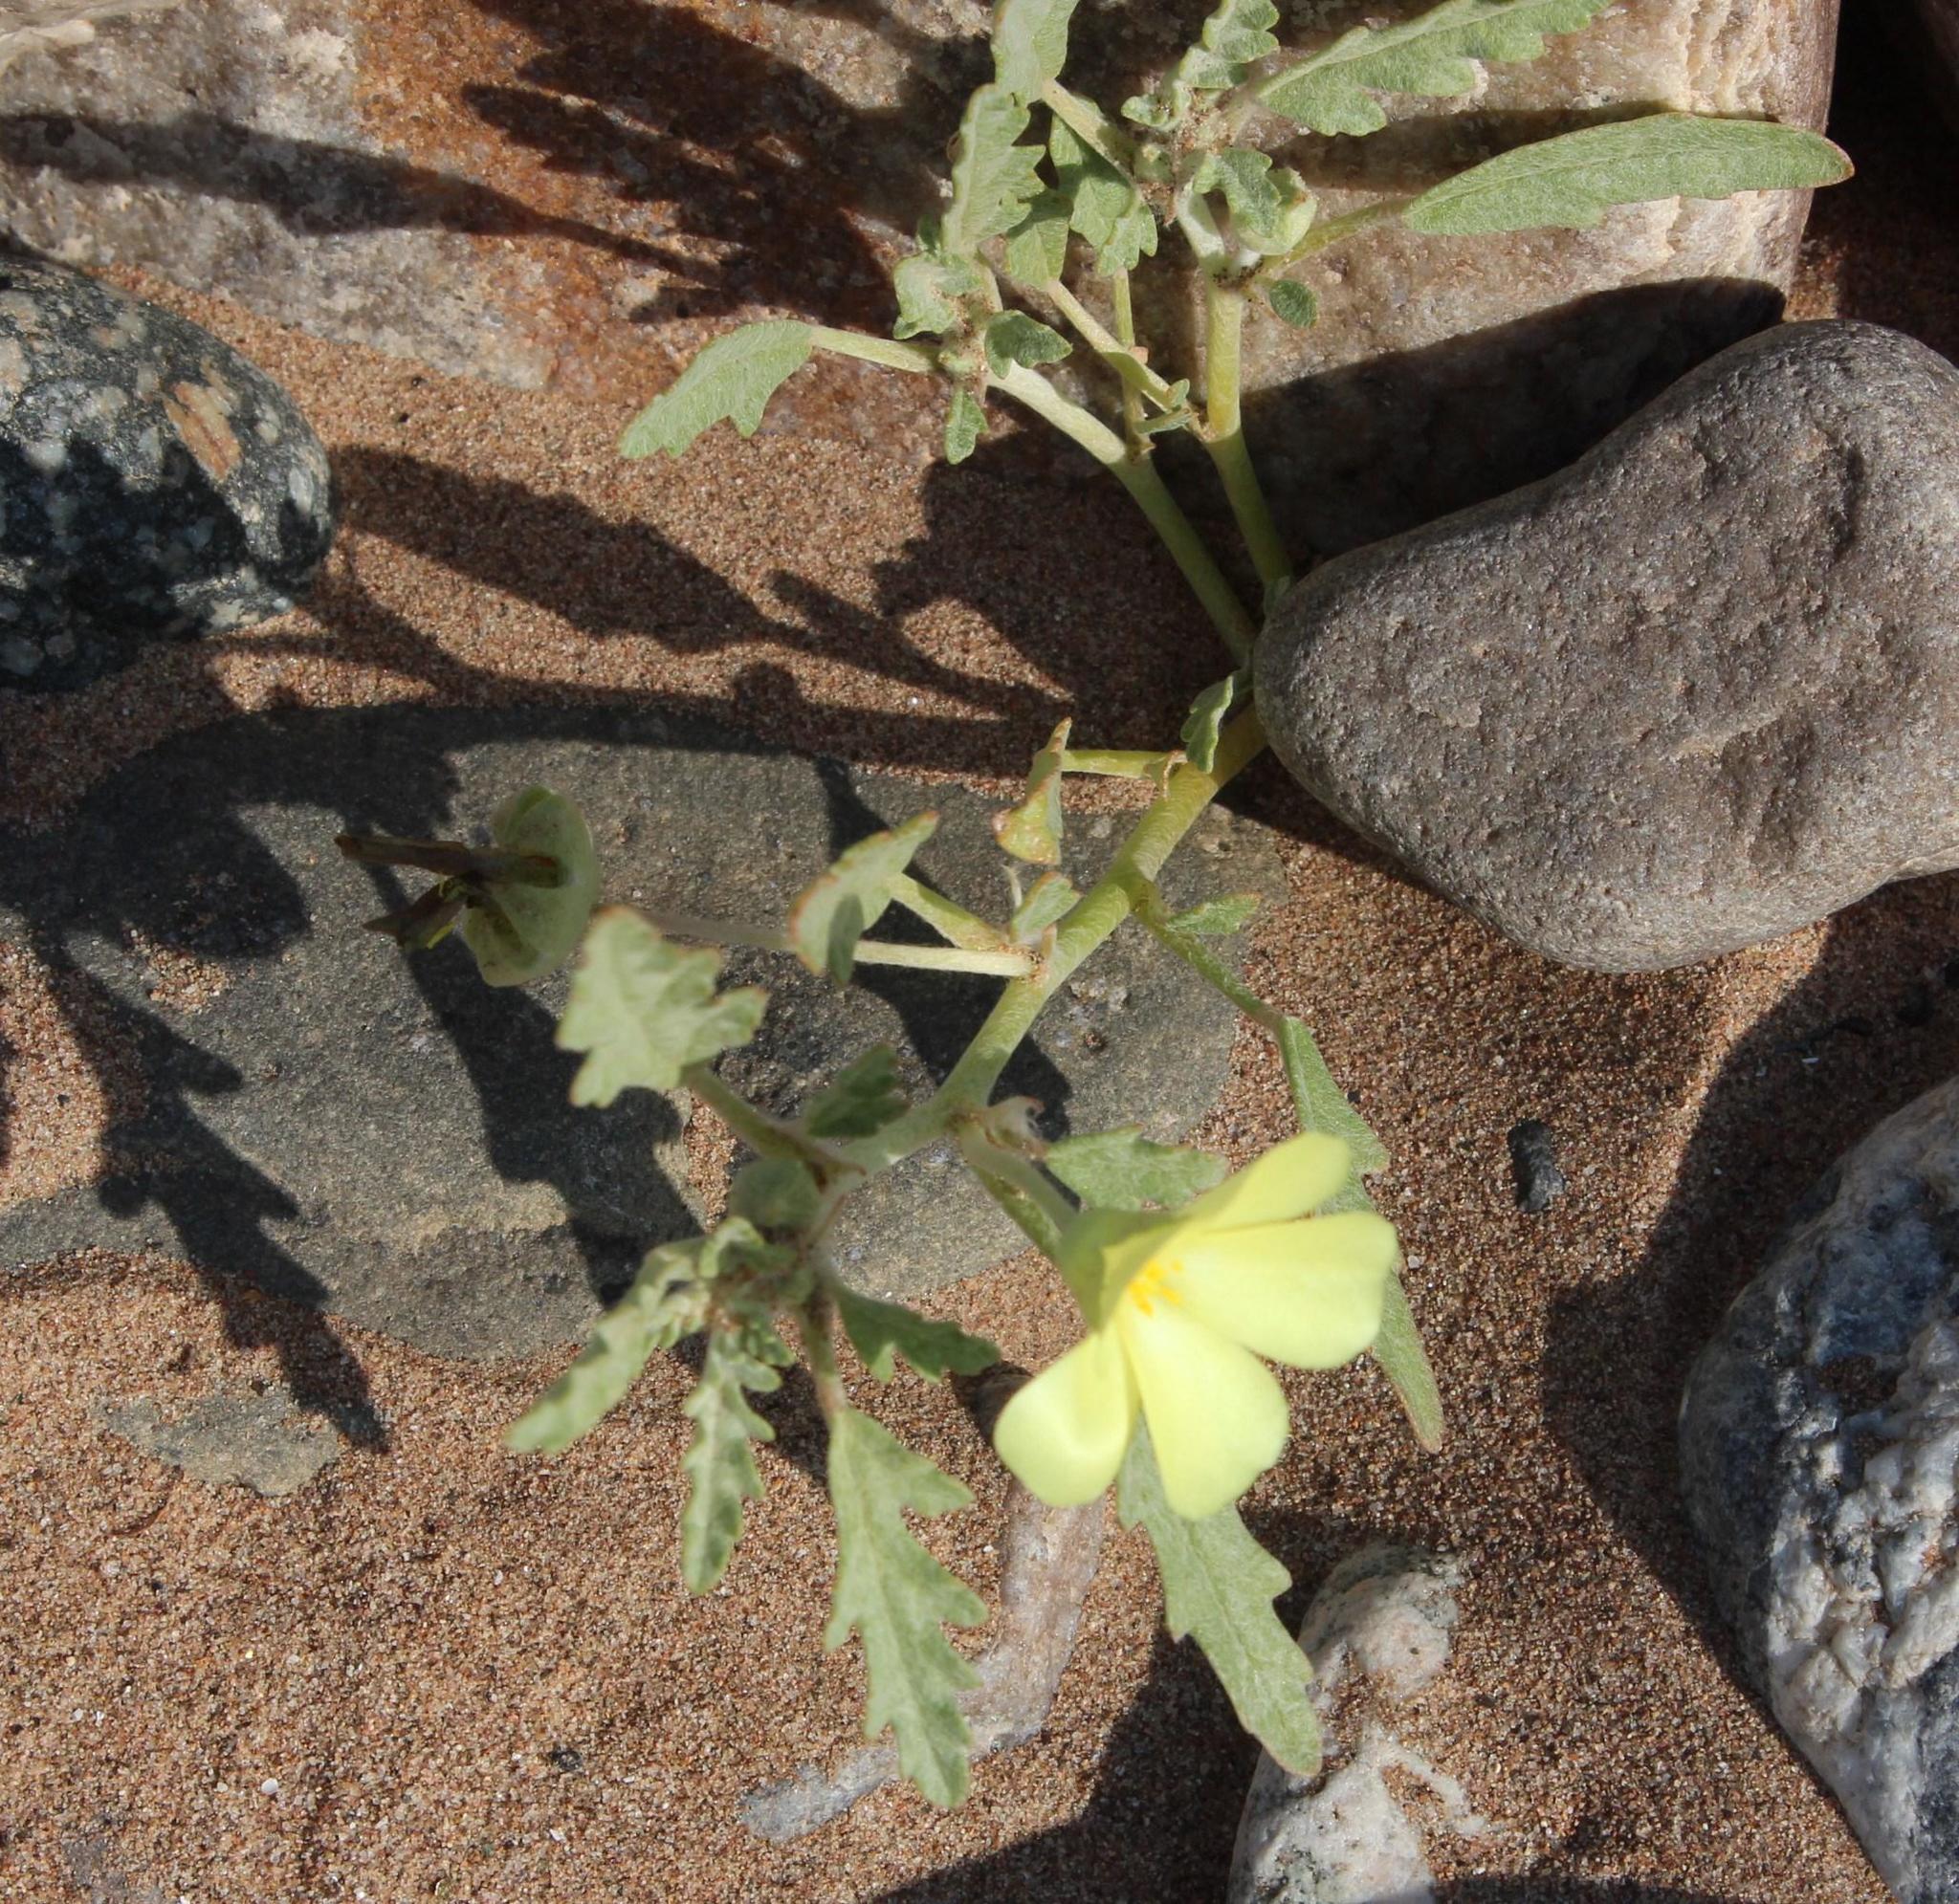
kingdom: Plantae
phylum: Tracheophyta
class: Magnoliopsida
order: Malvales
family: Neuradaceae
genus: Grielum
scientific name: Grielum sinuatum
